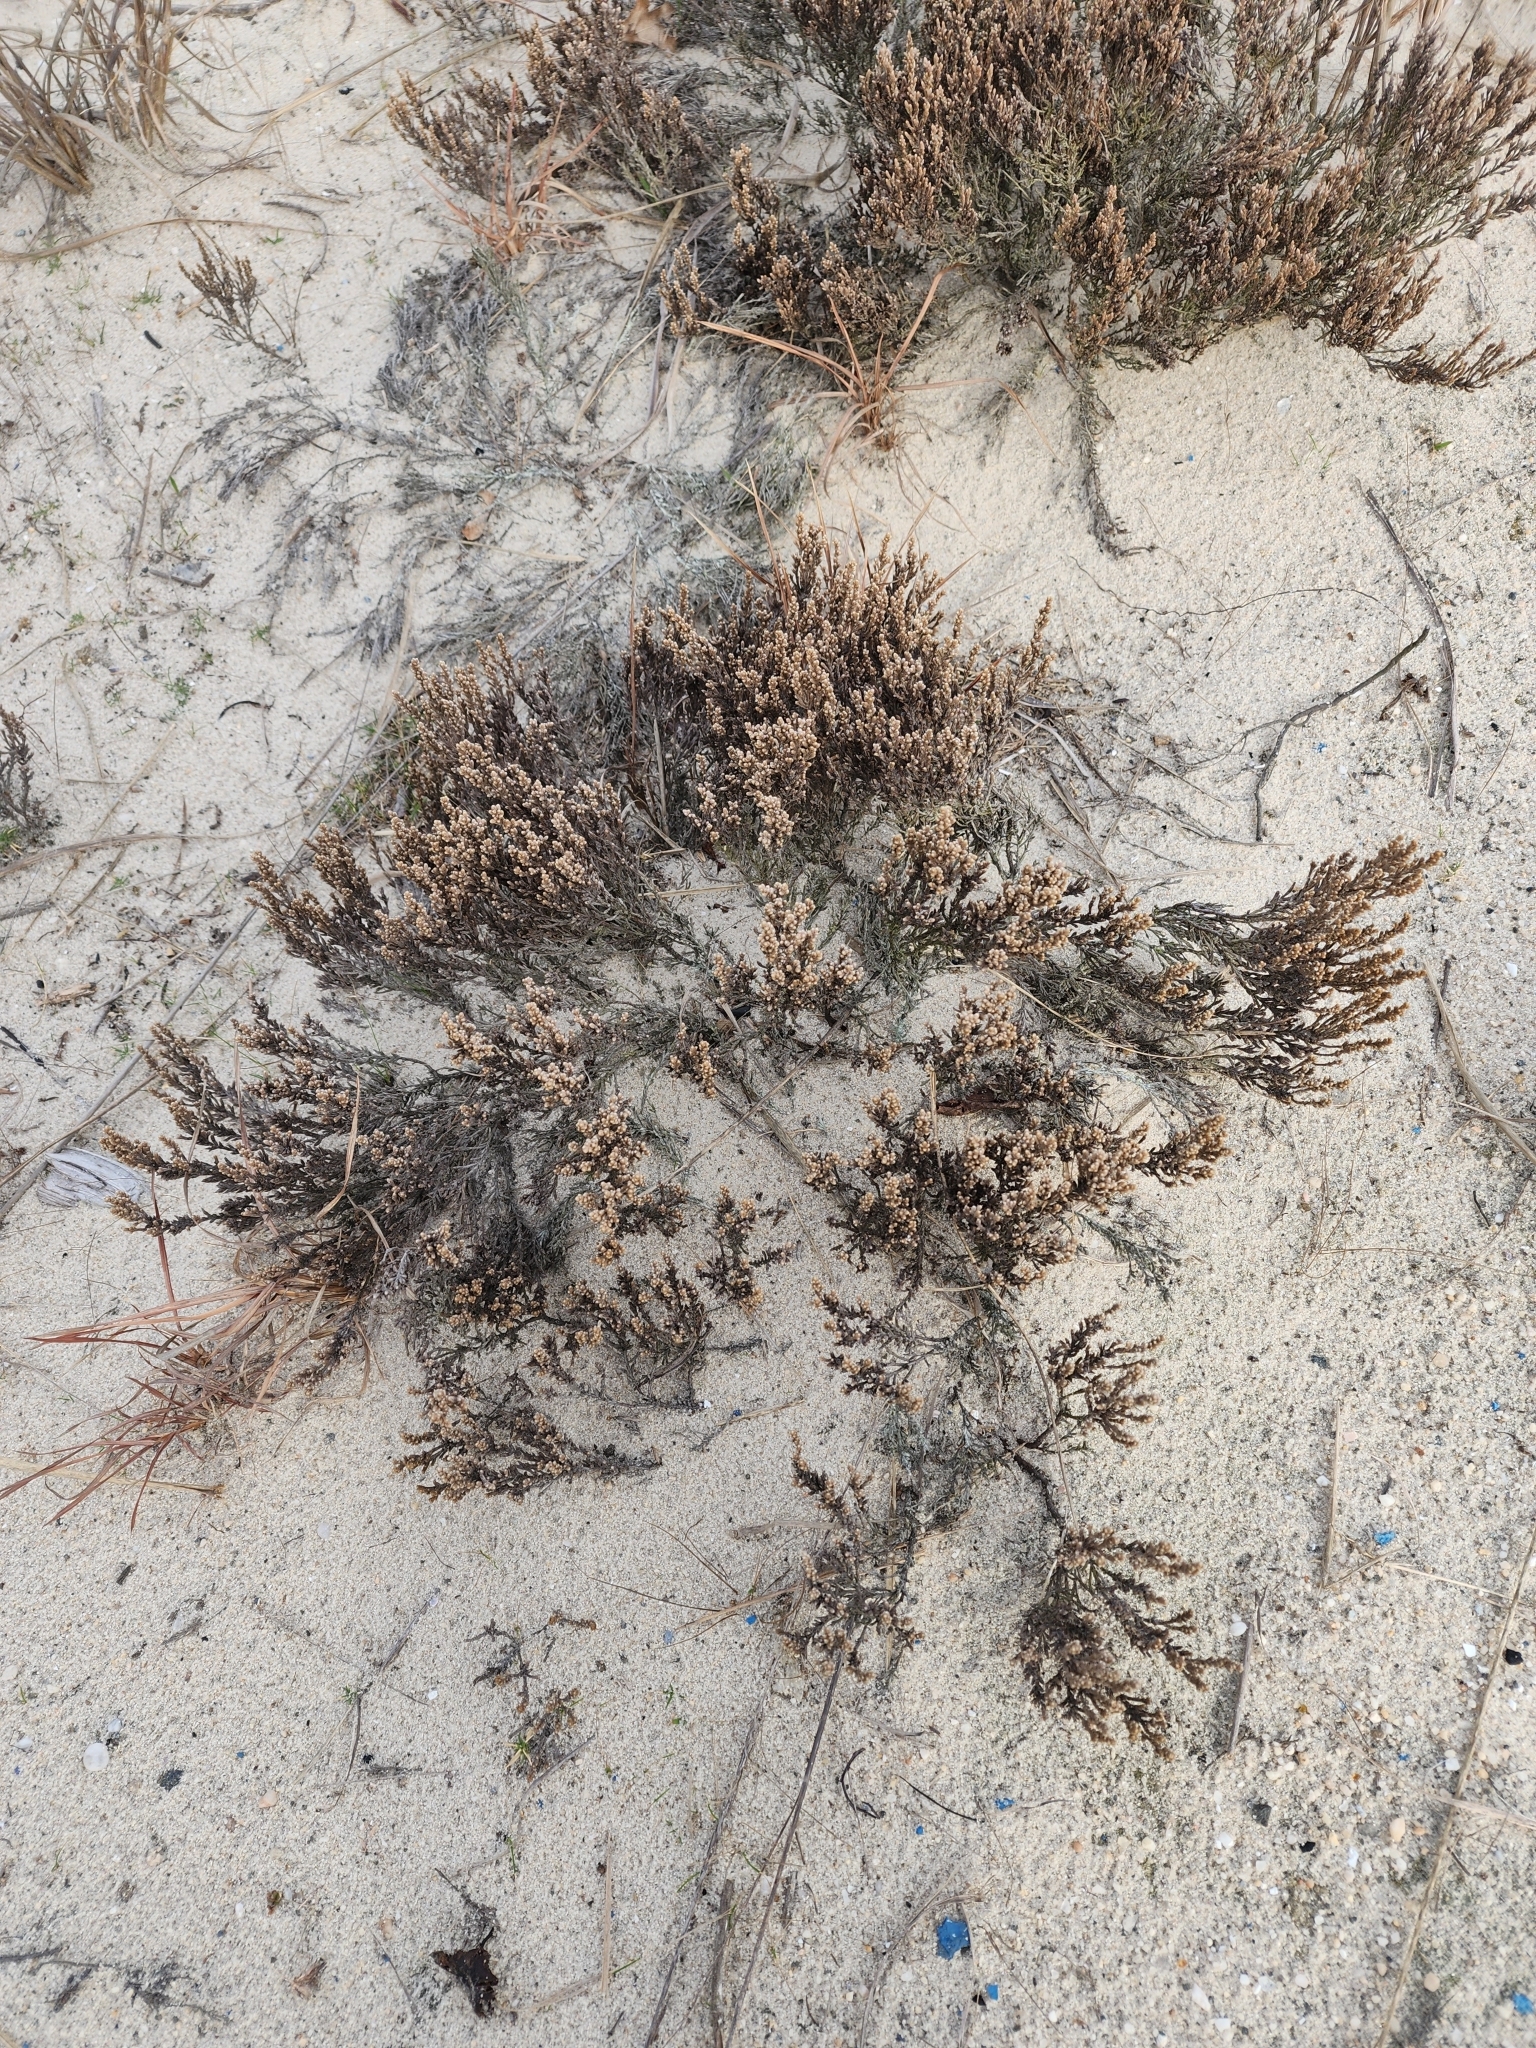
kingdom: Plantae
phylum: Tracheophyta
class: Magnoliopsida
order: Malvales
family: Cistaceae
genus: Hudsonia
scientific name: Hudsonia tomentosa
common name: Beach-heath
